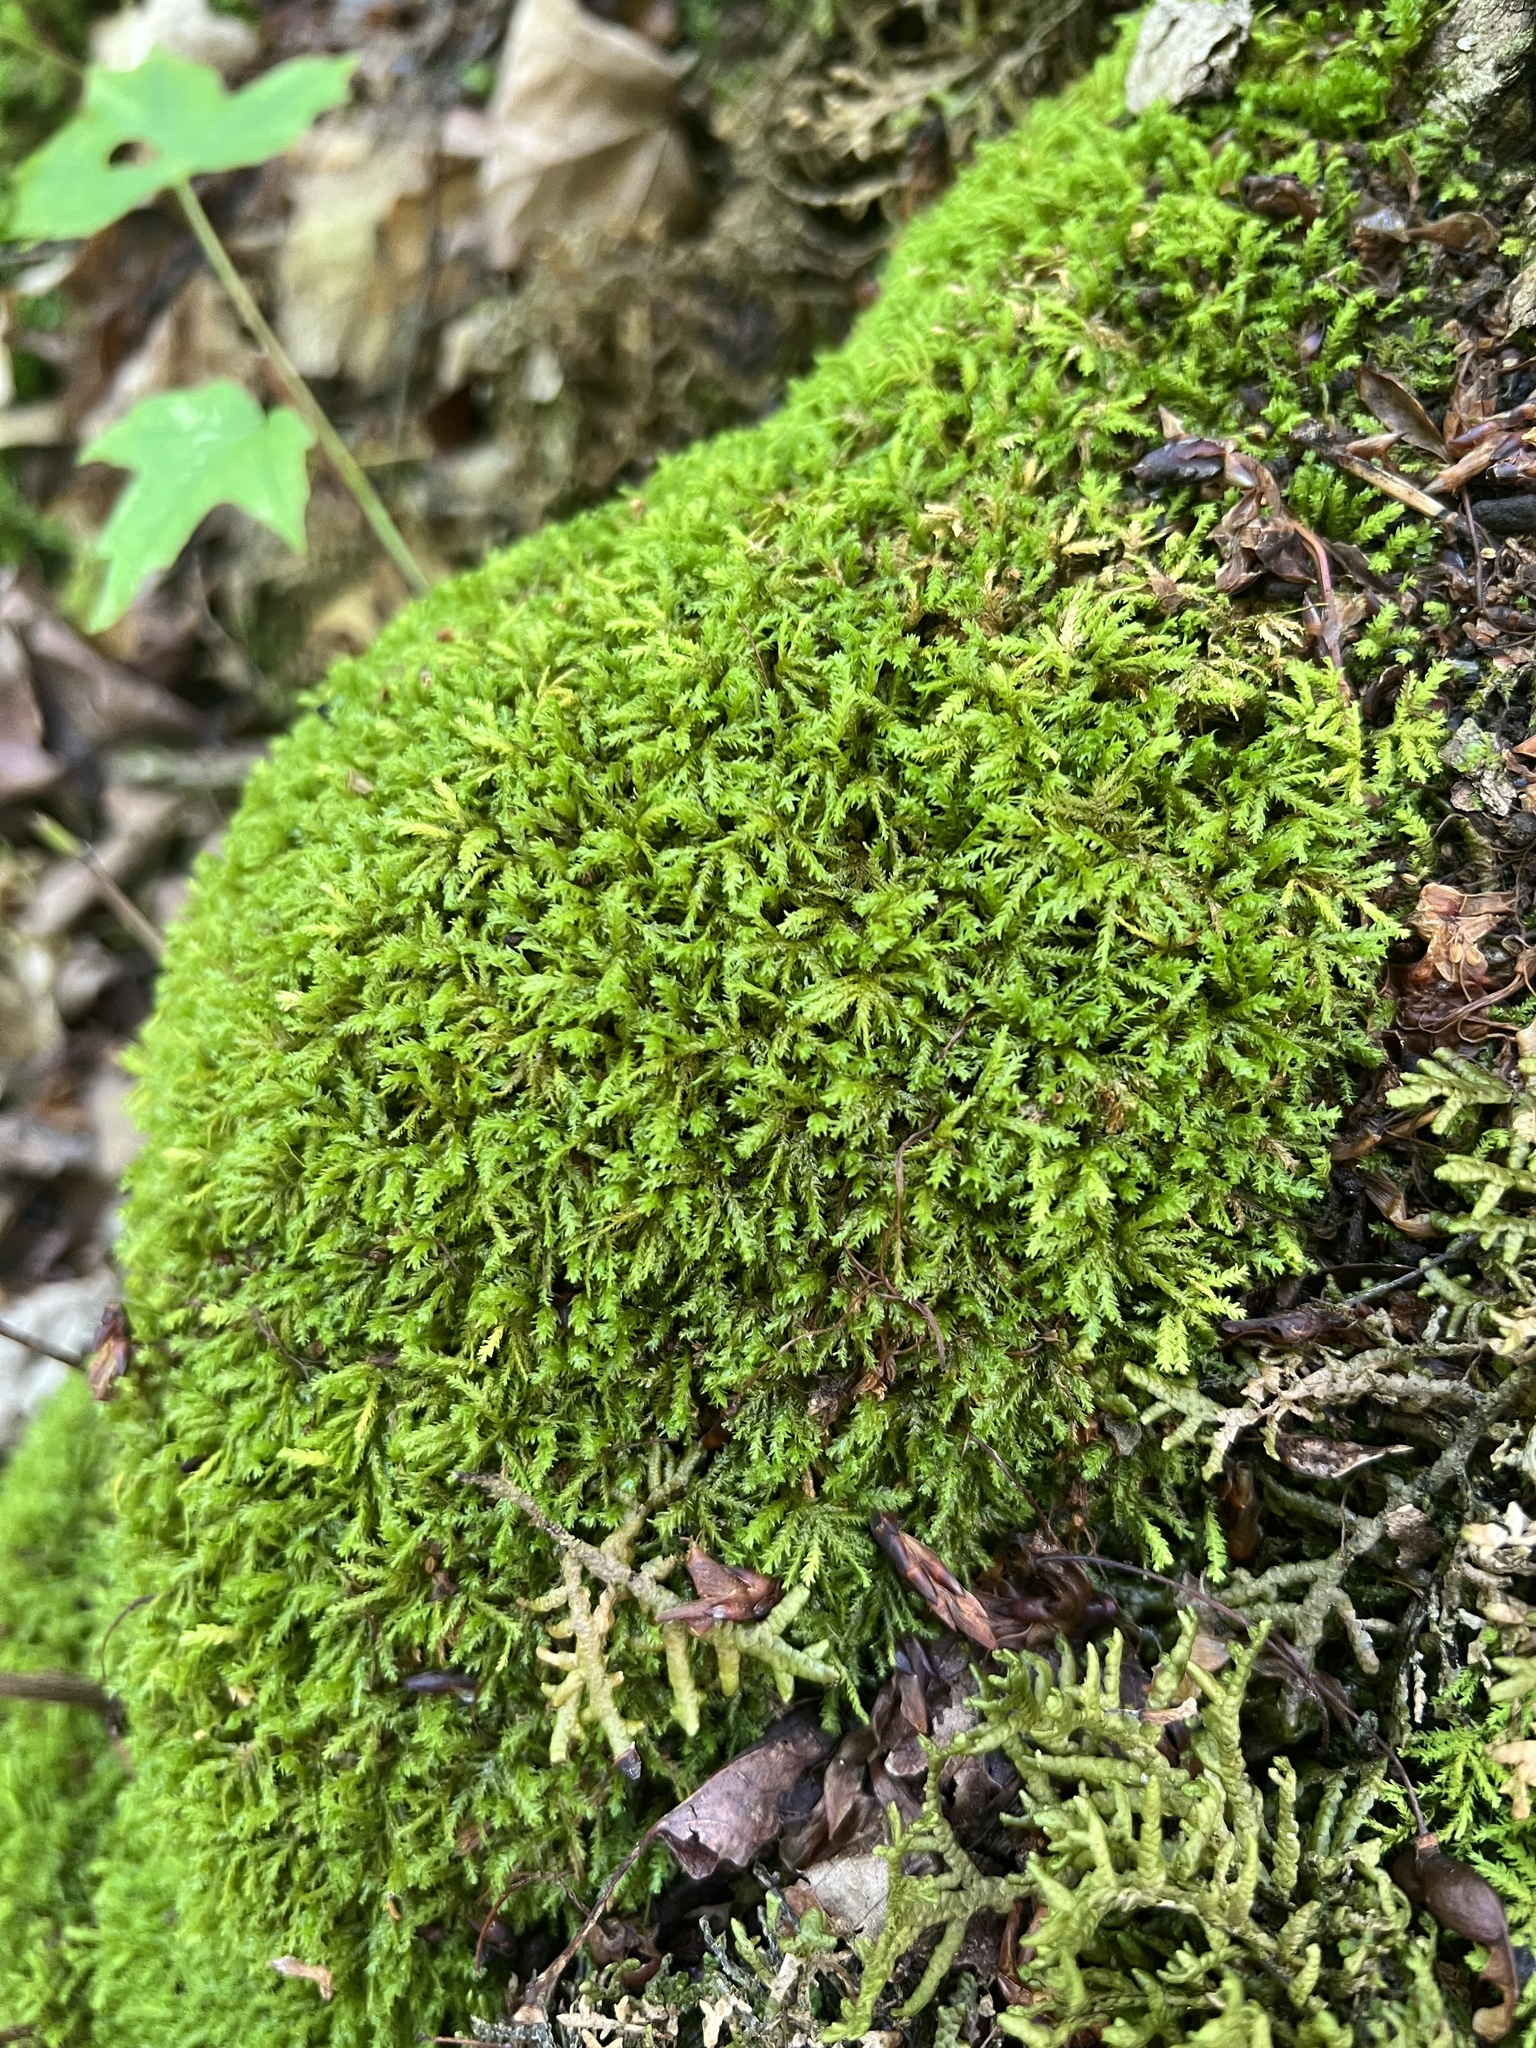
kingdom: Plantae
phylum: Bryophyta
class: Bryopsida
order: Hypnales
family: Neckeraceae
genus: Pseudanomodon
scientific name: Pseudanomodon attenuatus
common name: Tree-skirt moss
